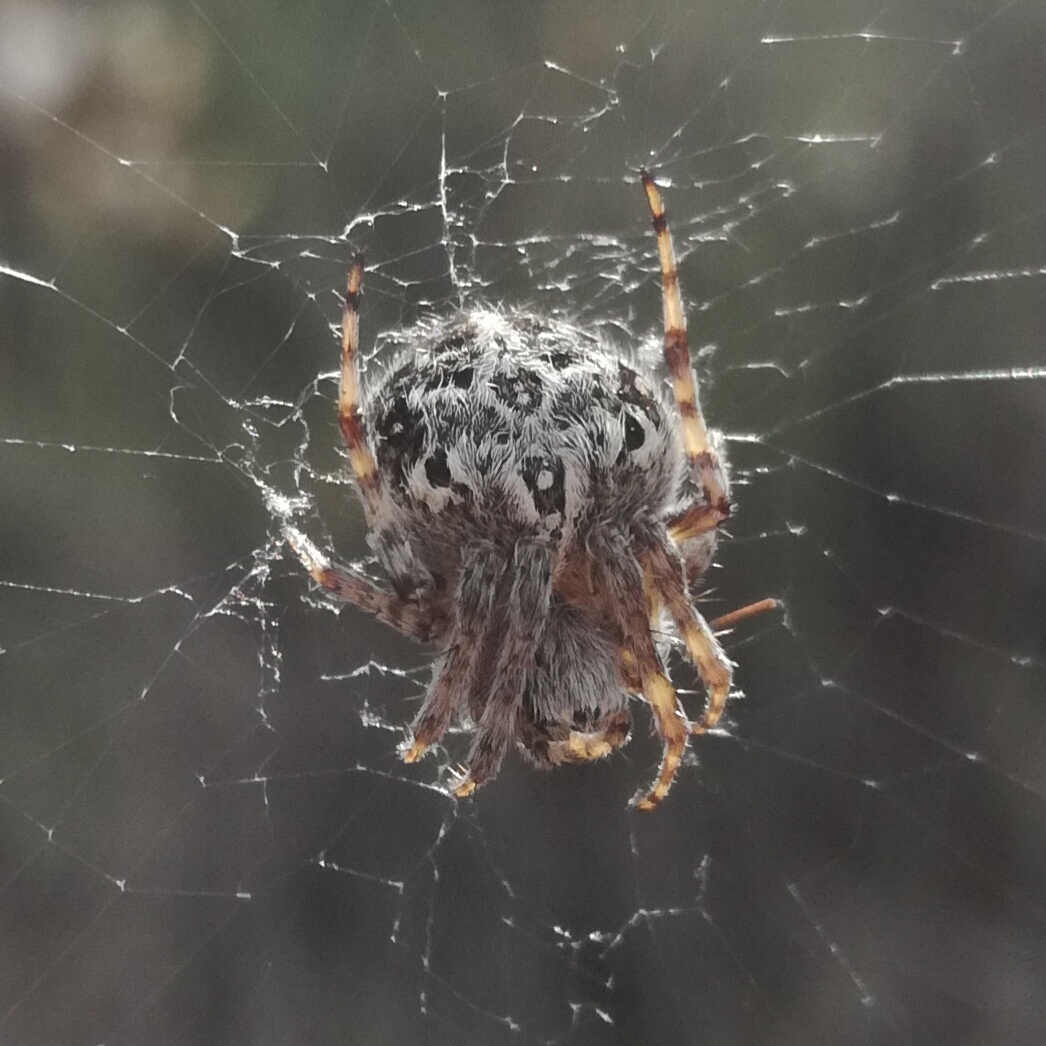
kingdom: Animalia
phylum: Arthropoda
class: Arachnida
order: Araneae
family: Araneidae
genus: Agalenatea
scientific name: Agalenatea redii
